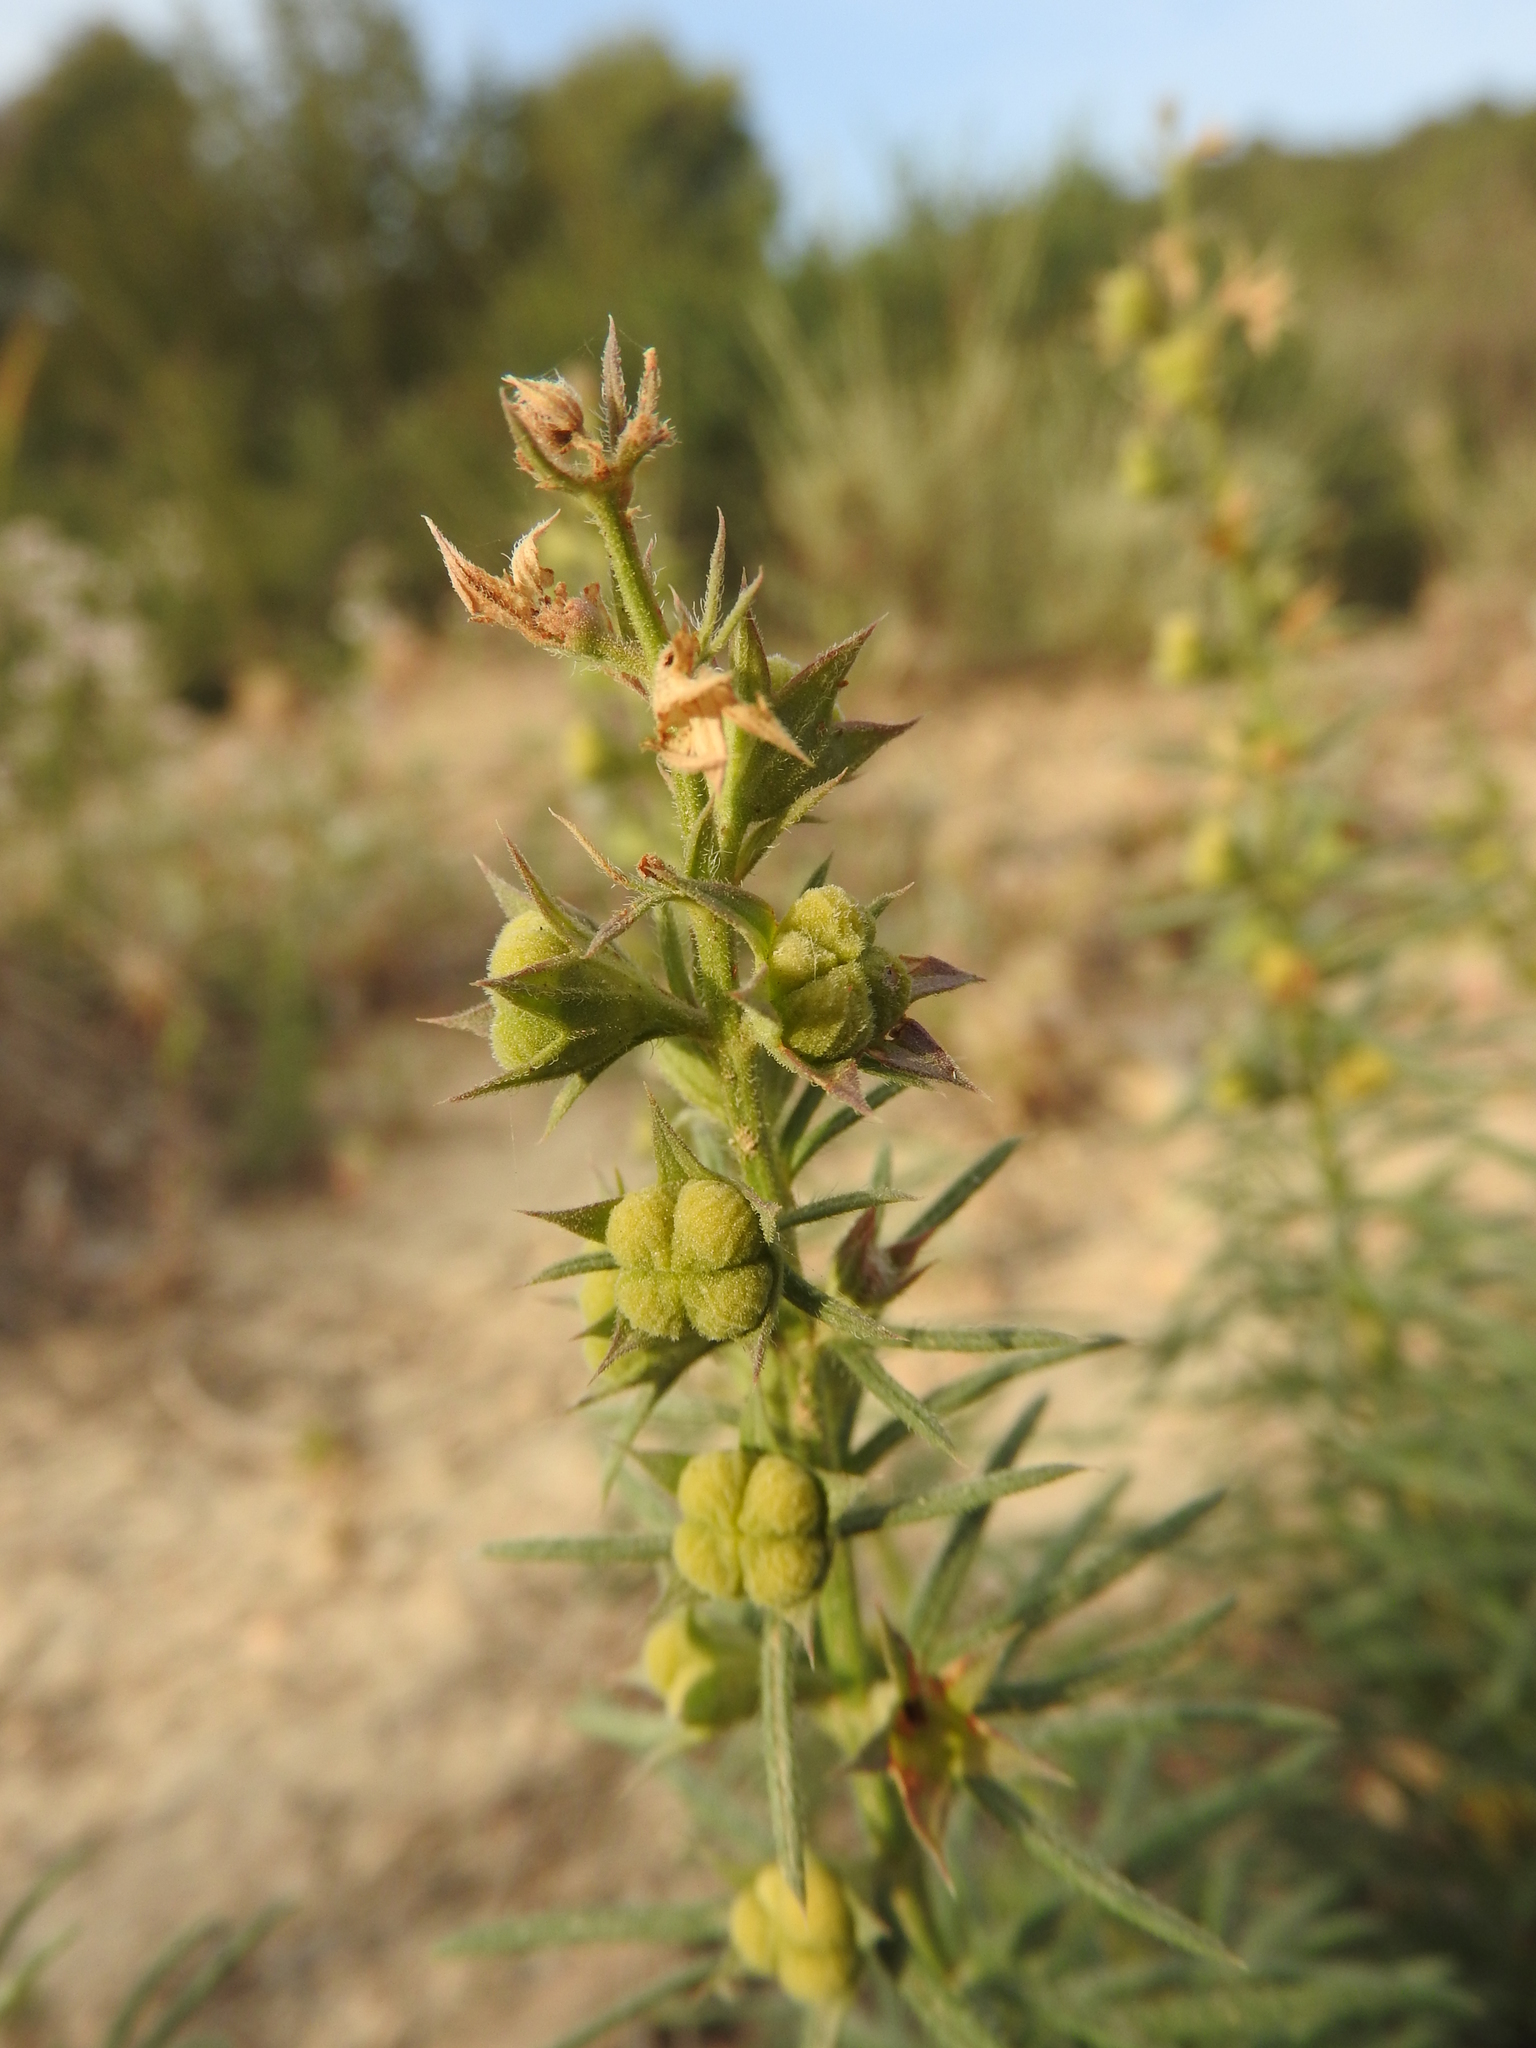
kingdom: Plantae
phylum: Tracheophyta
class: Magnoliopsida
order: Lamiales
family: Lamiaceae
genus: Teucrium
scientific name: Teucrium pseudochamaepitys
